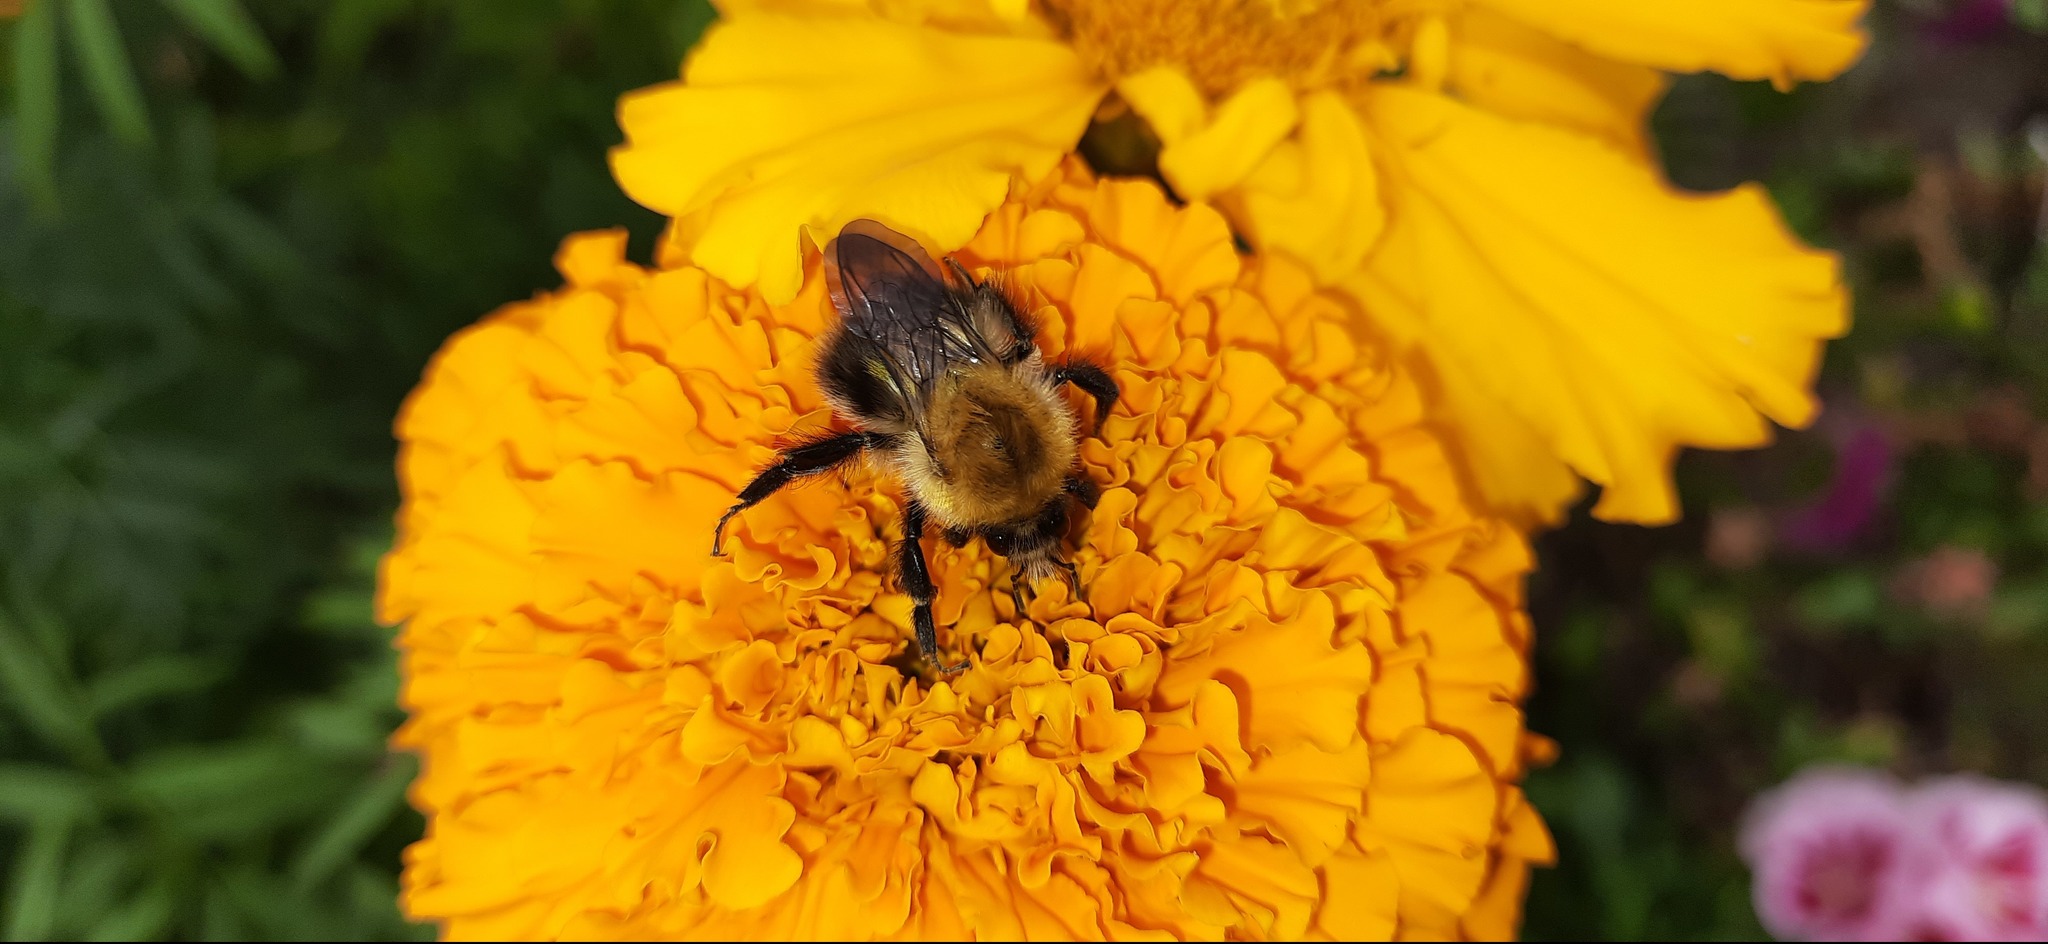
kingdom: Animalia
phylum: Arthropoda
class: Insecta
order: Hymenoptera
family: Apidae
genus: Bombus
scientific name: Bombus pascuorum
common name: Common carder bee
